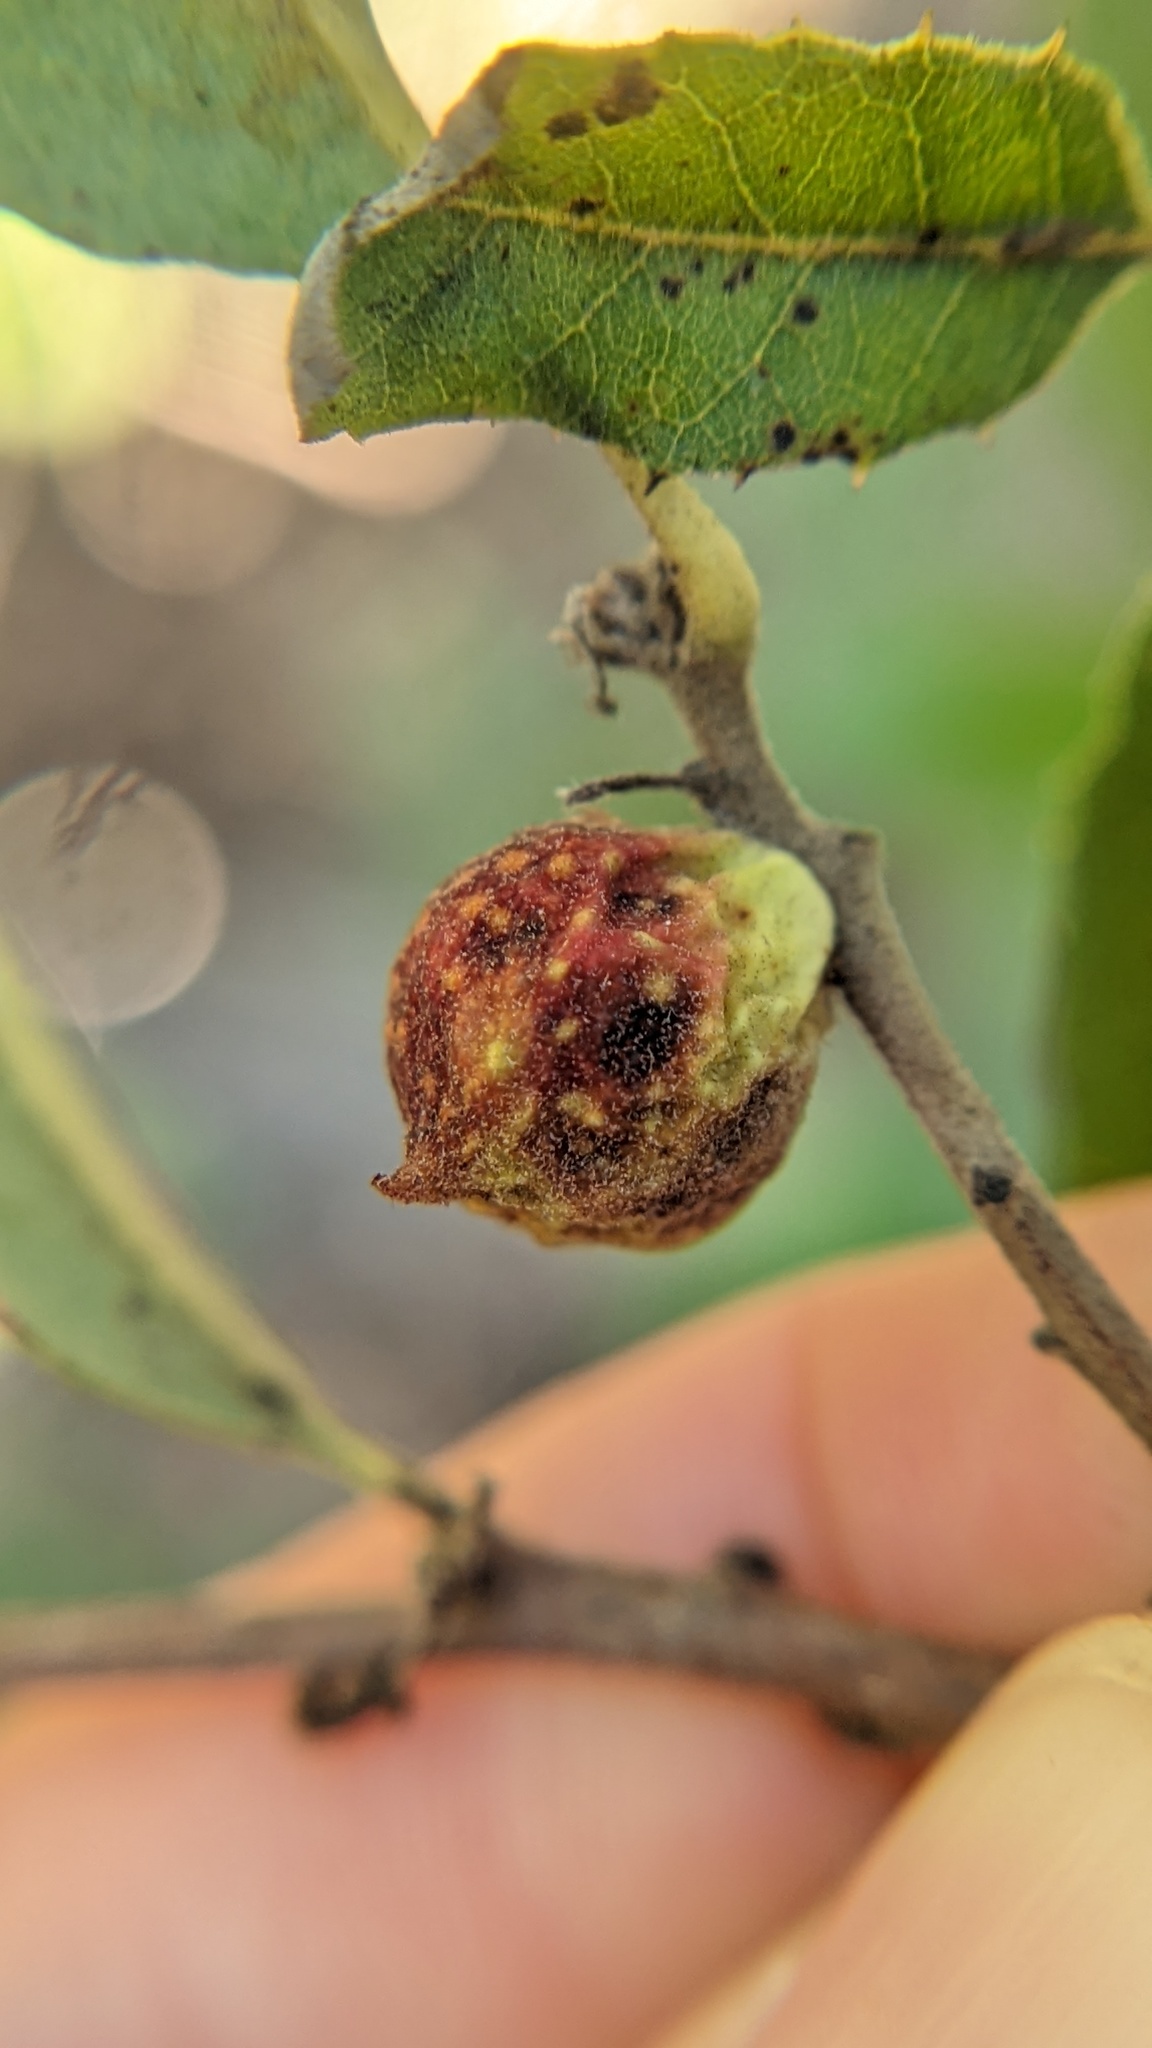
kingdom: Animalia
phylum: Arthropoda
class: Insecta
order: Hymenoptera
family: Cynipidae
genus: Burnettweldia
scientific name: Burnettweldia
